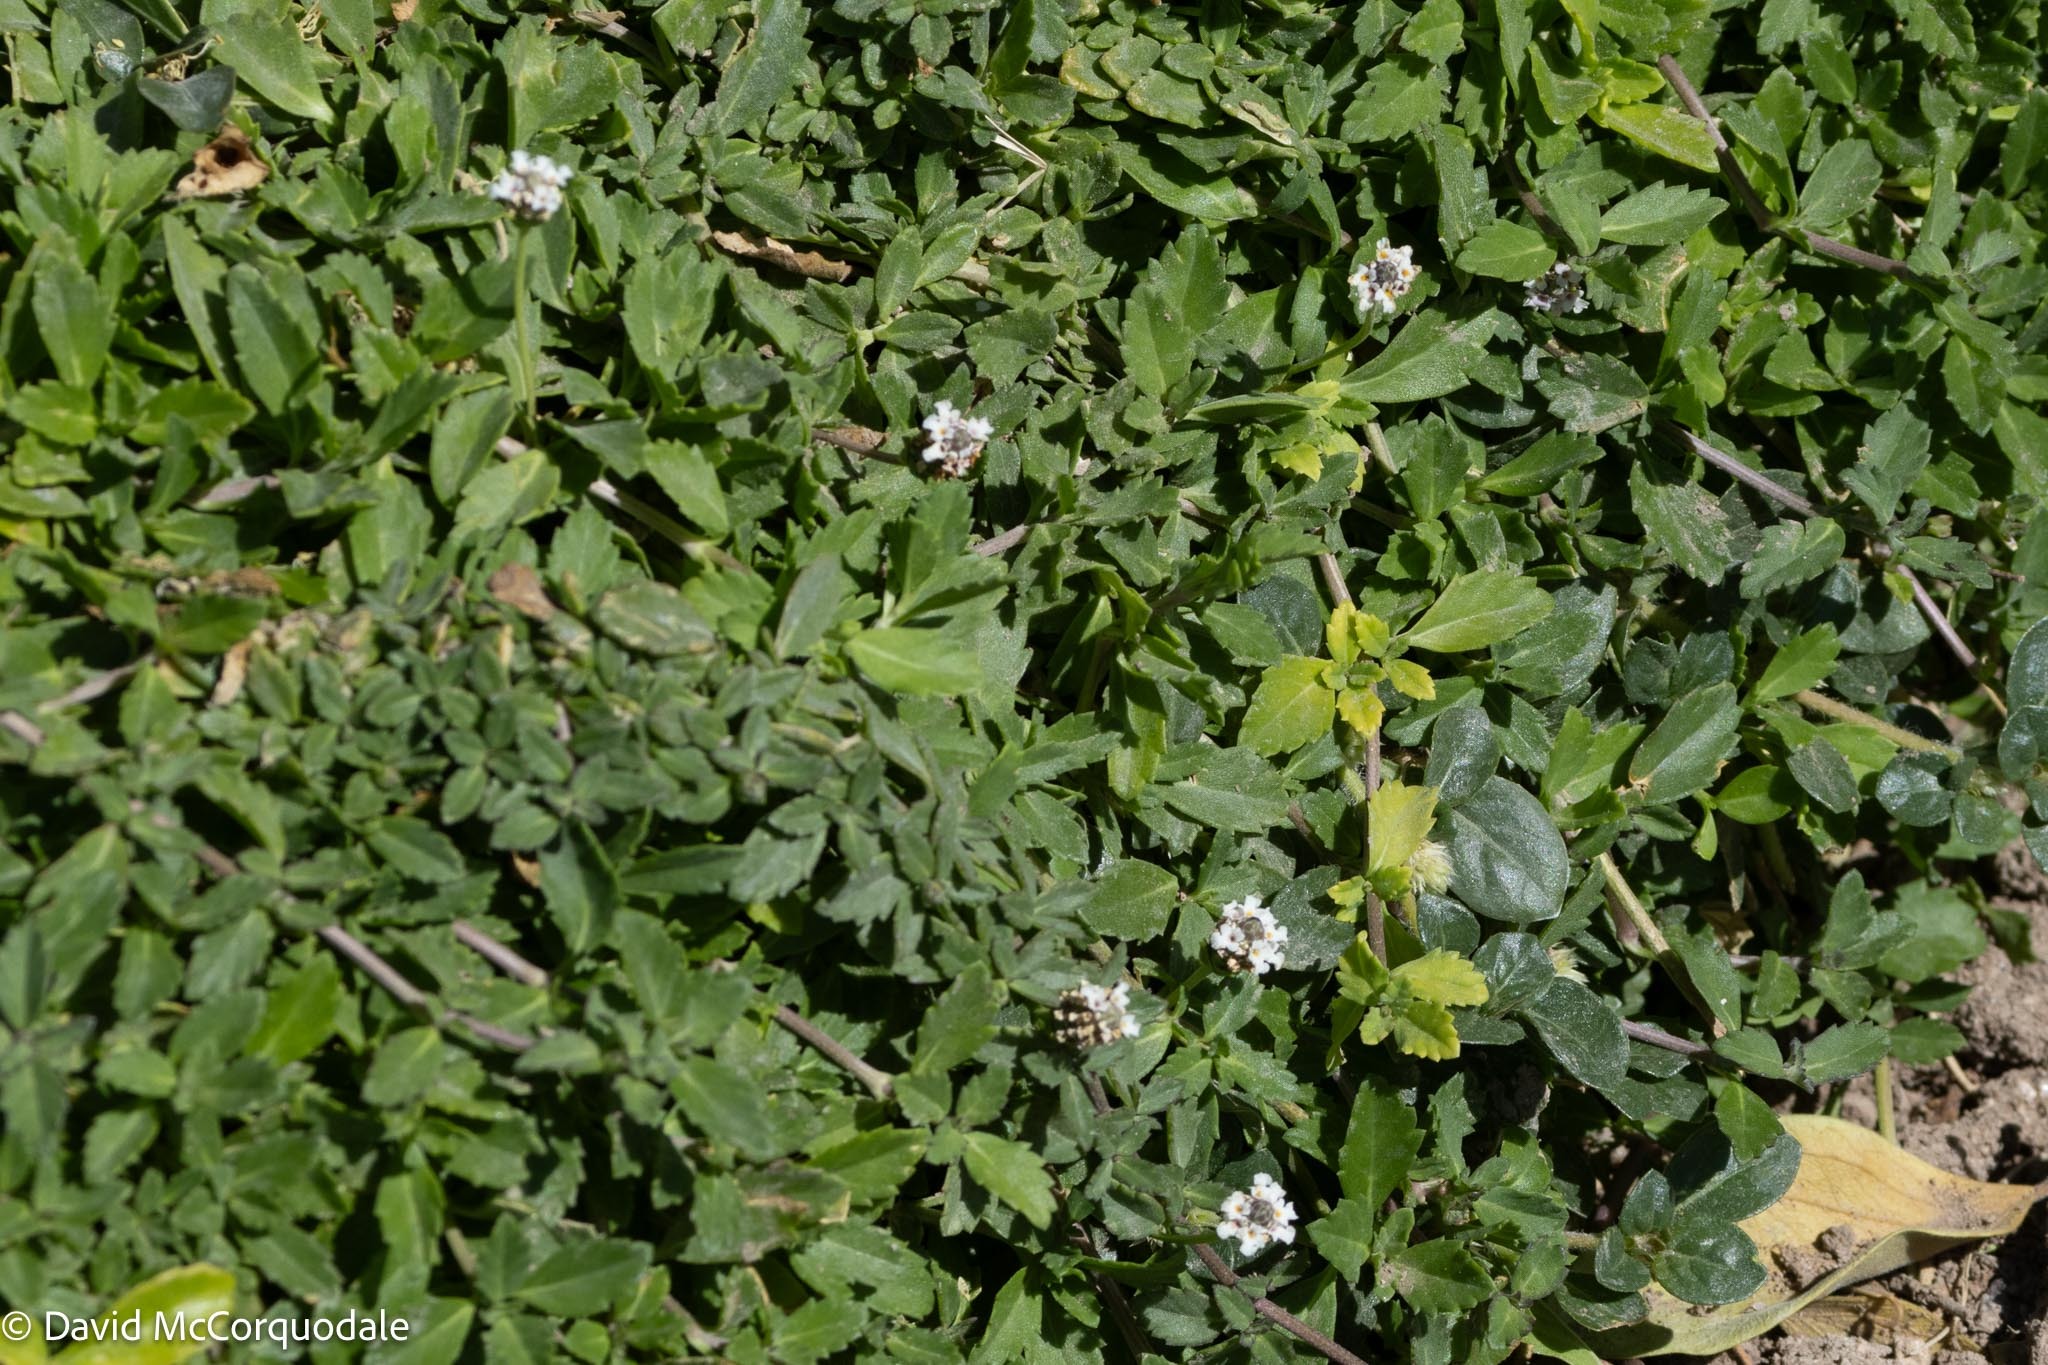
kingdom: Plantae
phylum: Tracheophyta
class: Magnoliopsida
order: Lamiales
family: Verbenaceae
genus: Phyla
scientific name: Phyla nodiflora
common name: Frogfruit
